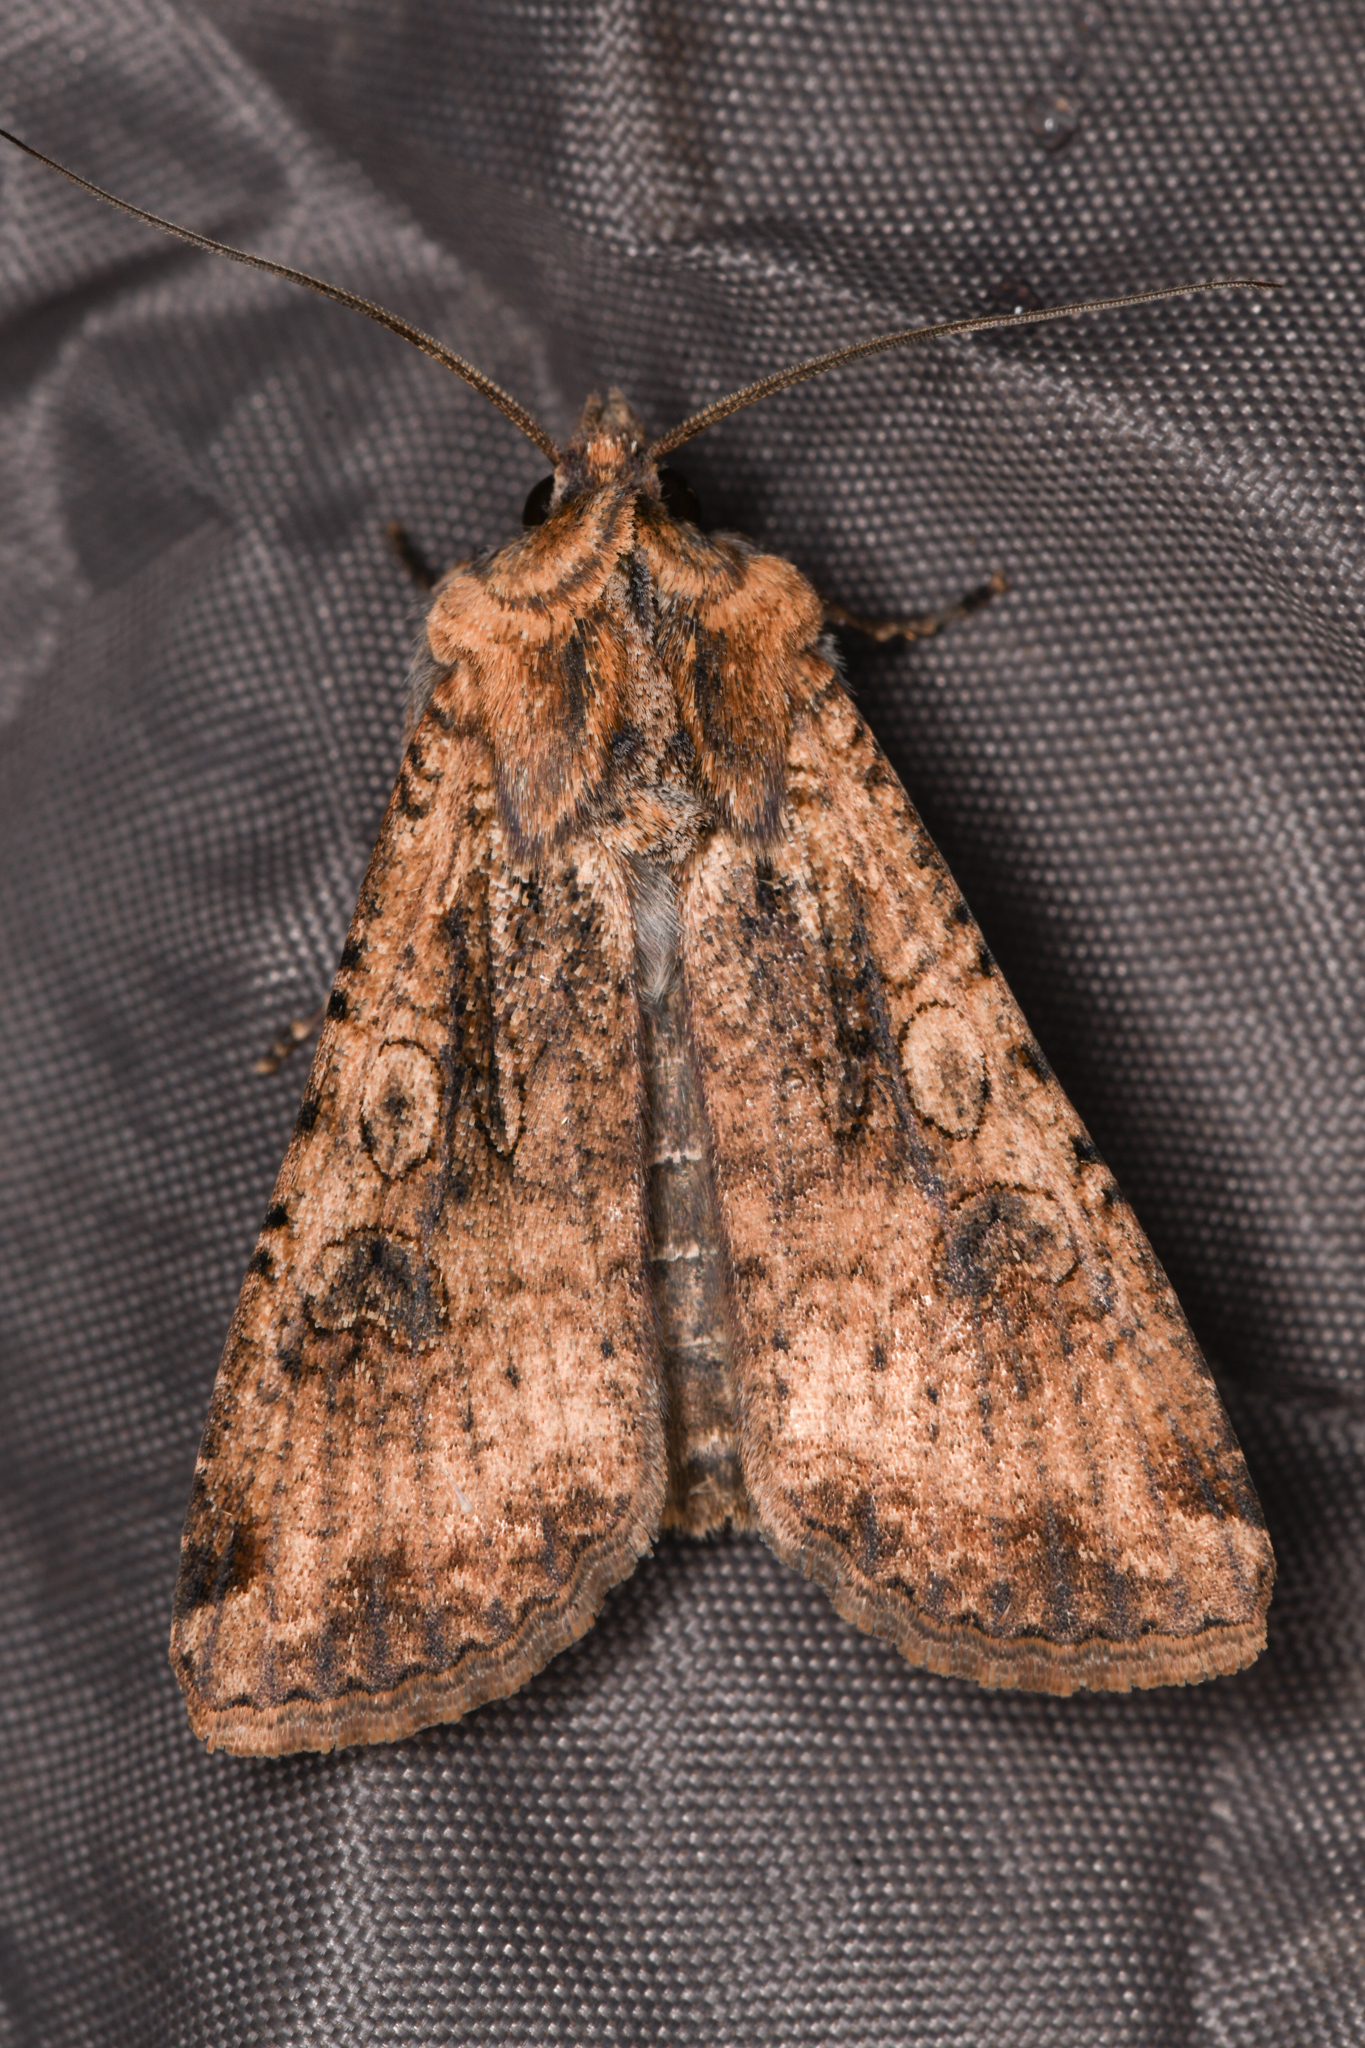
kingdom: Animalia
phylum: Arthropoda
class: Insecta
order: Lepidoptera
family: Noctuidae
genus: Peridroma
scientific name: Peridroma saucia
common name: Pearly underwing
